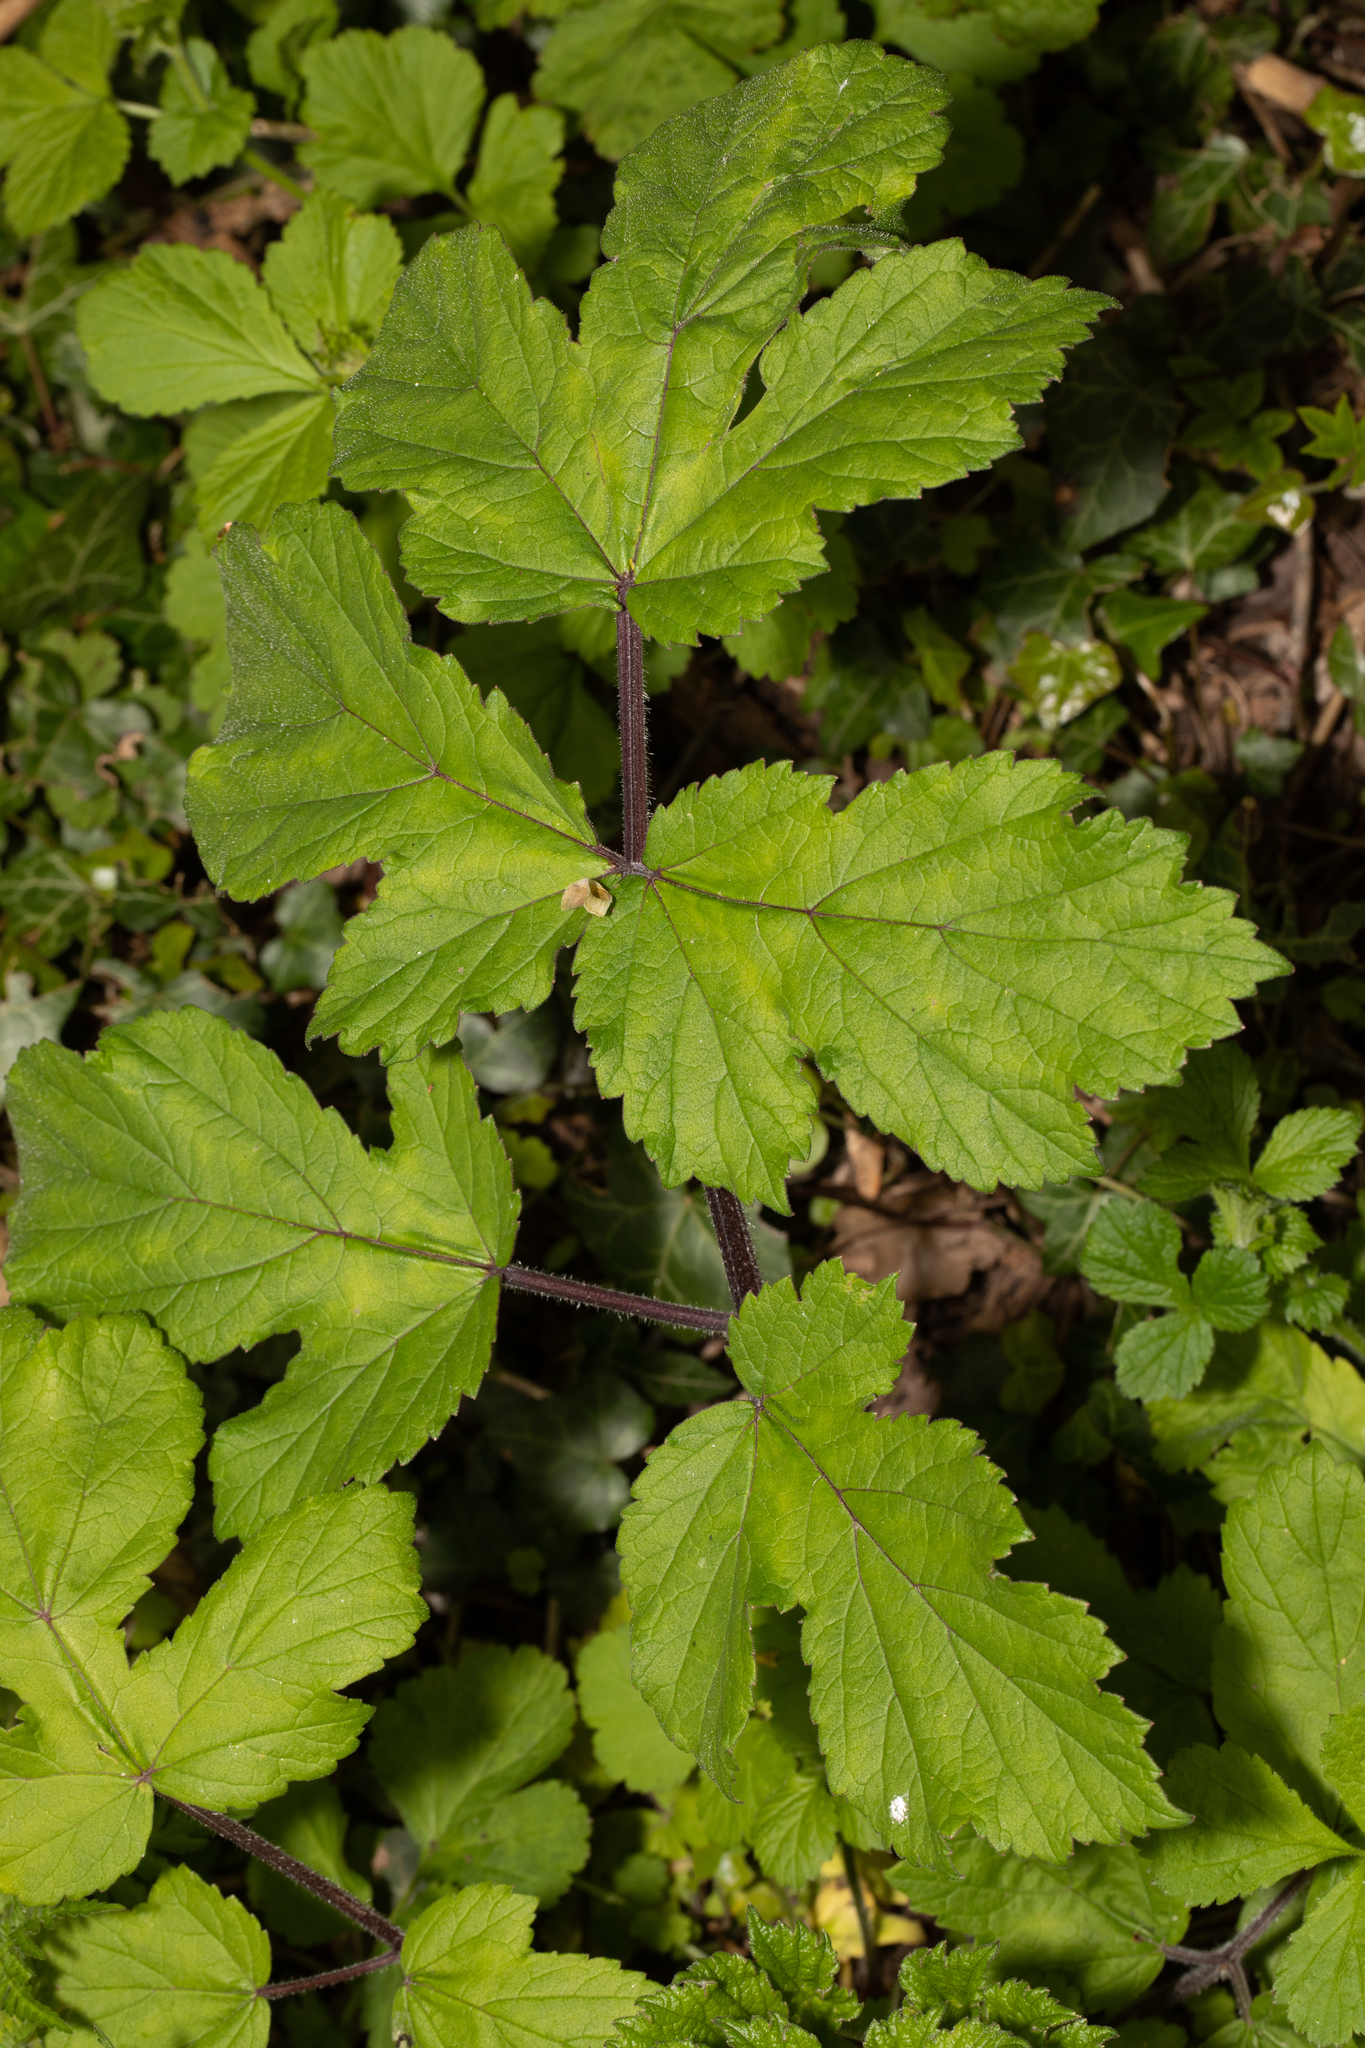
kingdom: Plantae
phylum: Tracheophyta
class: Magnoliopsida
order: Apiales
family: Apiaceae
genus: Heracleum
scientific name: Heracleum sphondylium
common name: Hogweed
